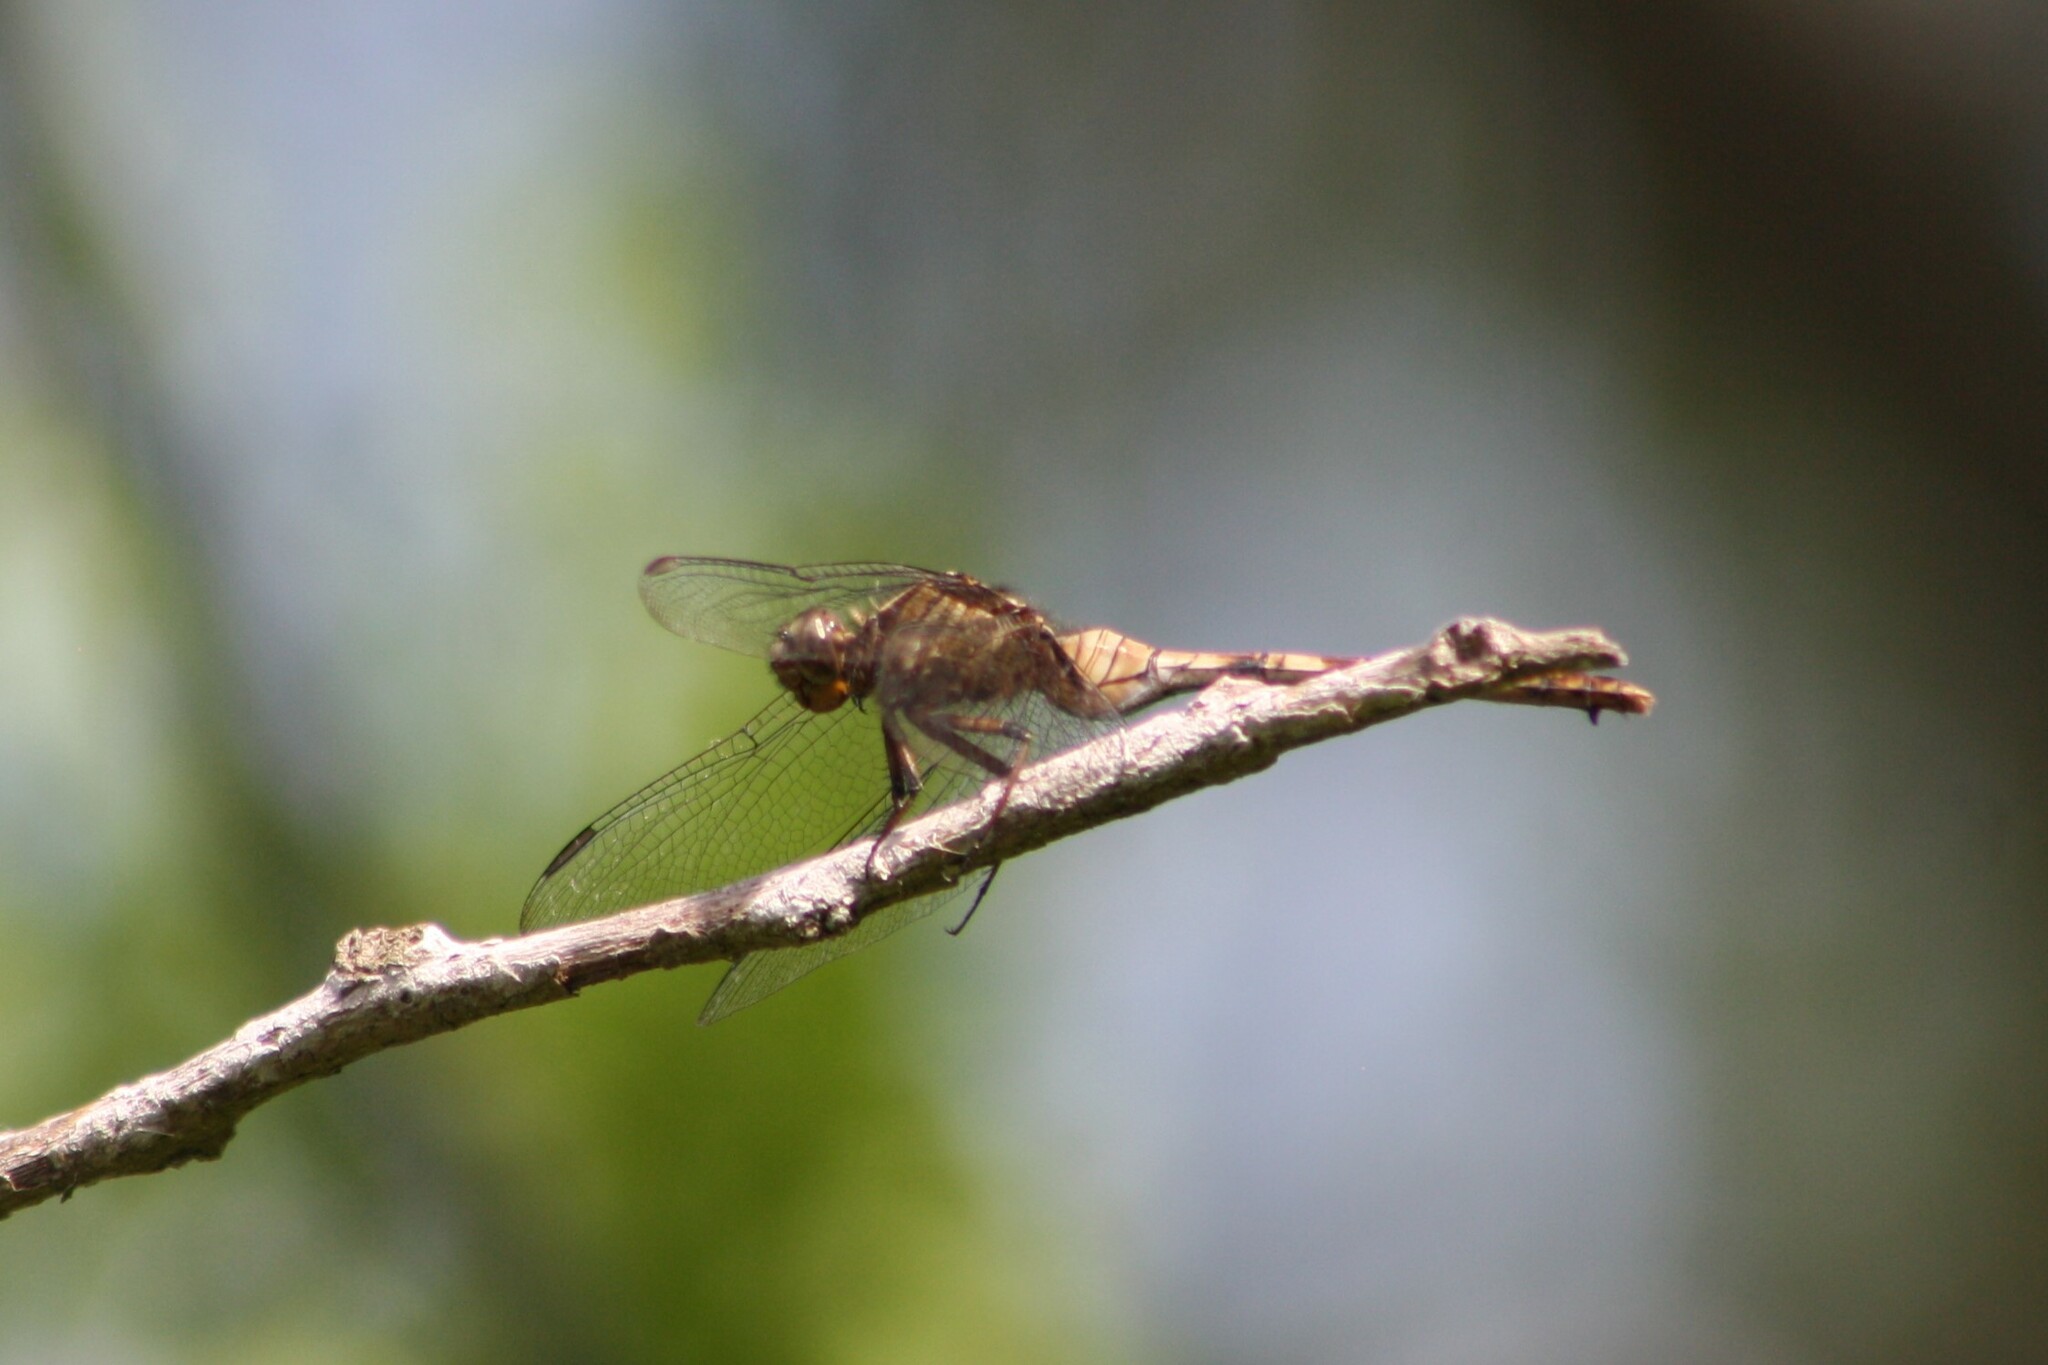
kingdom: Animalia
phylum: Arthropoda
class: Insecta
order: Odonata
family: Libellulidae
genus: Erythemis
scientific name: Erythemis plebeja
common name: Pin-tailed pondhawk
